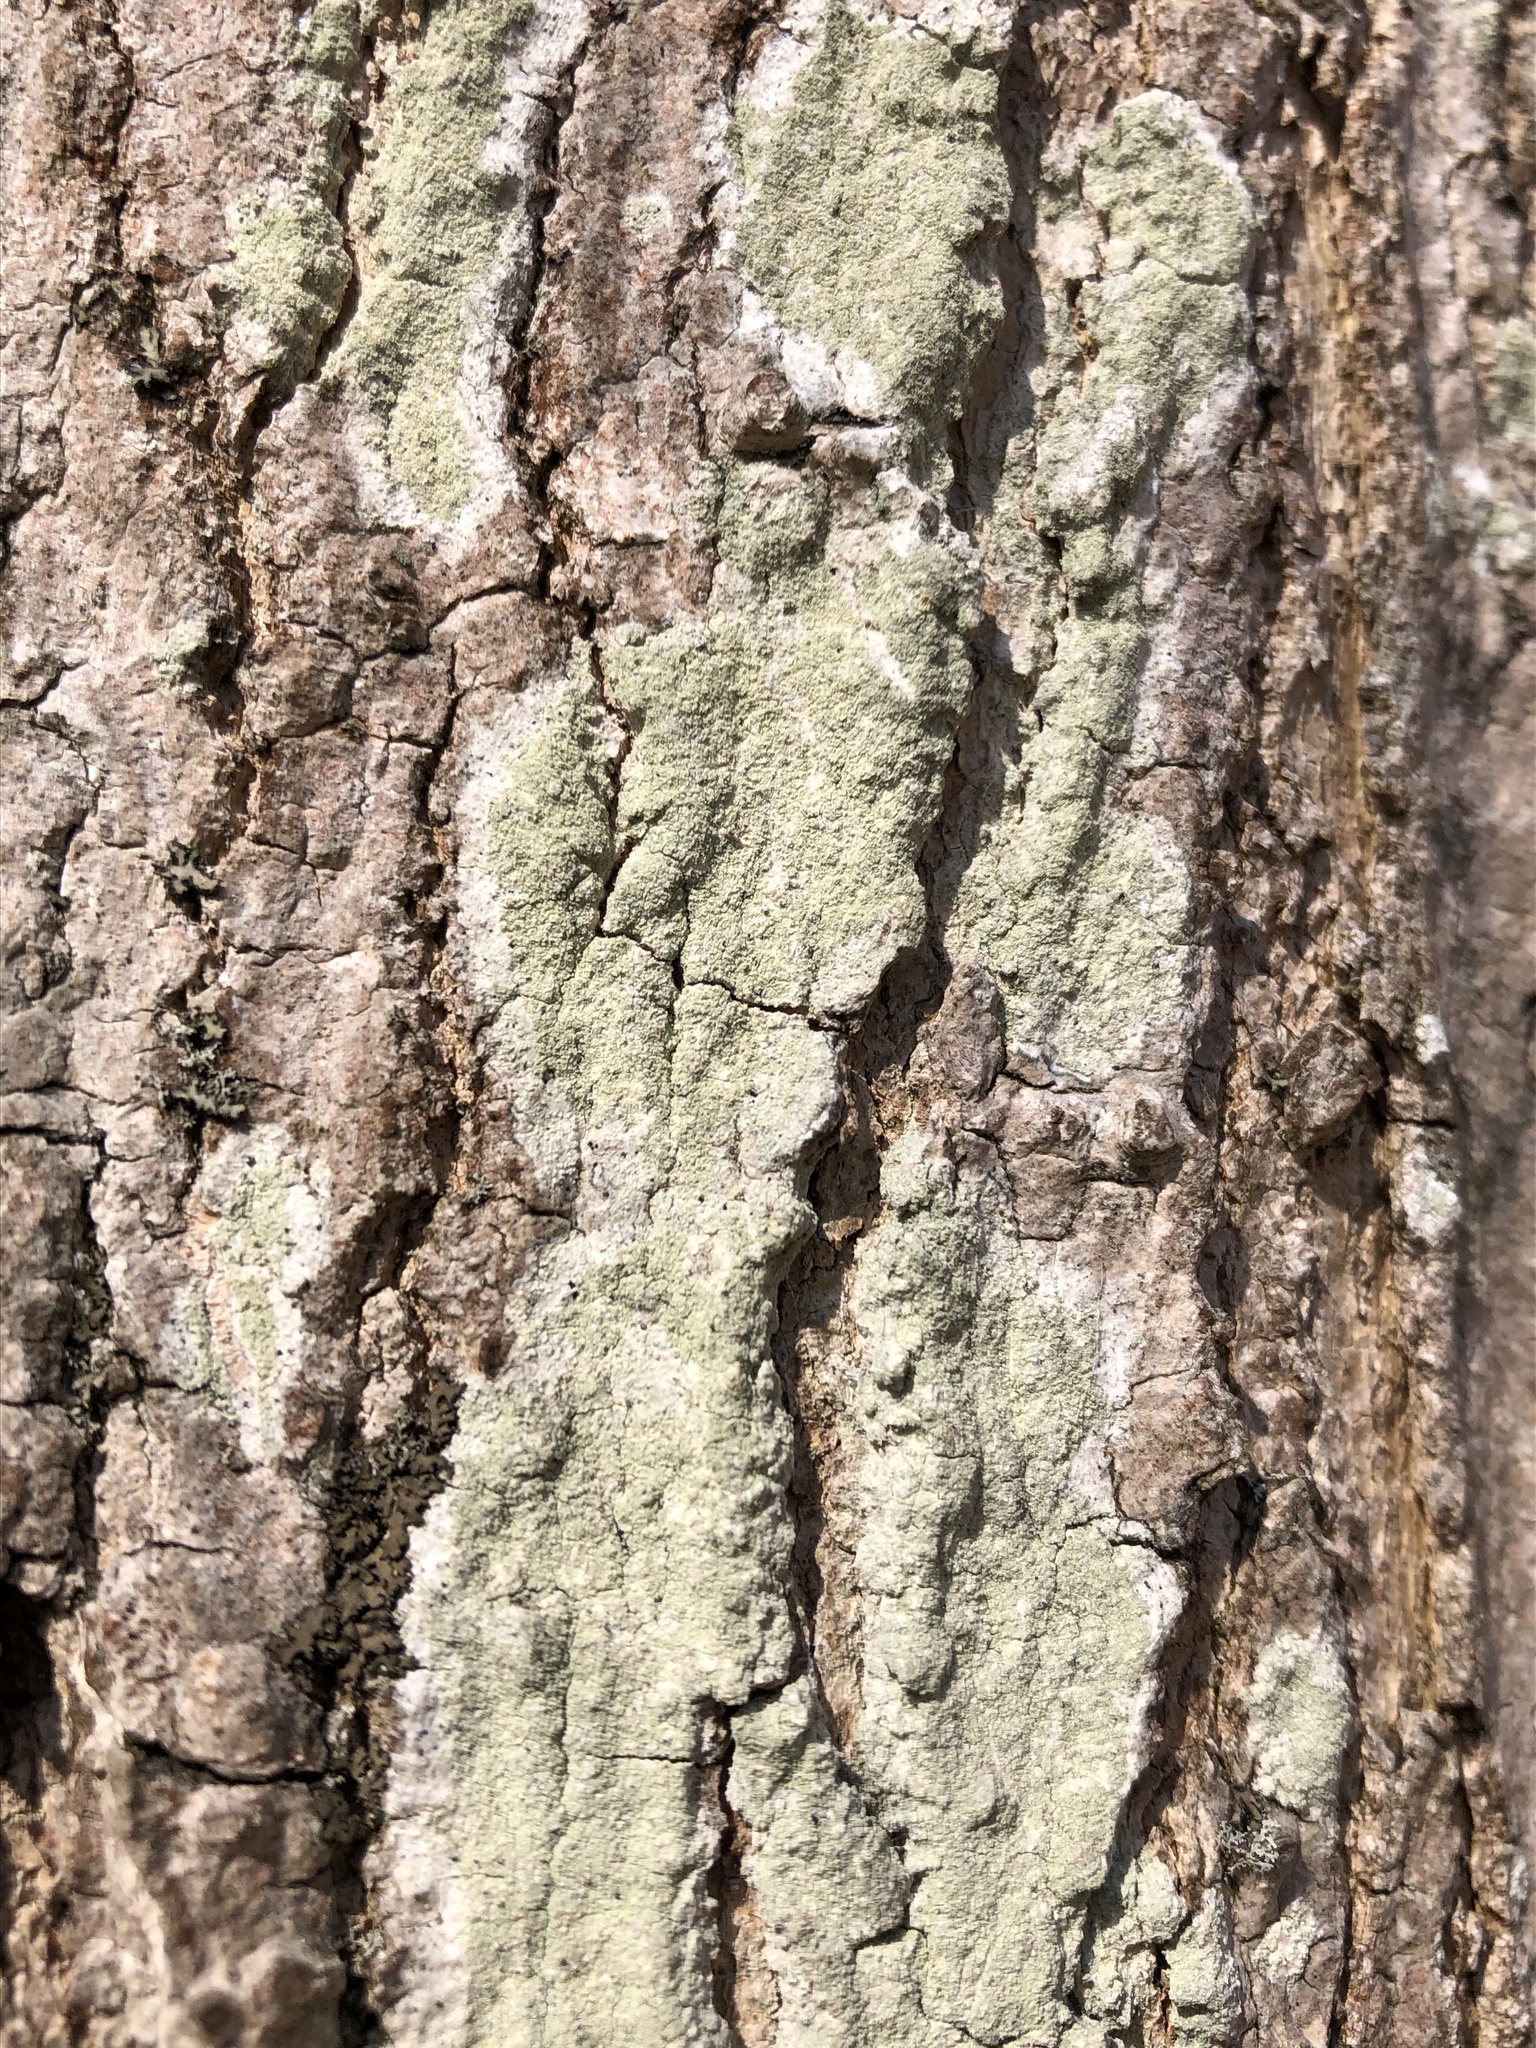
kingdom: Fungi
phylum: Ascomycota
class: Lecanoromycetes
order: Pertusariales
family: Pertusariaceae
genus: Verseghya
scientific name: Verseghya thysanophora
